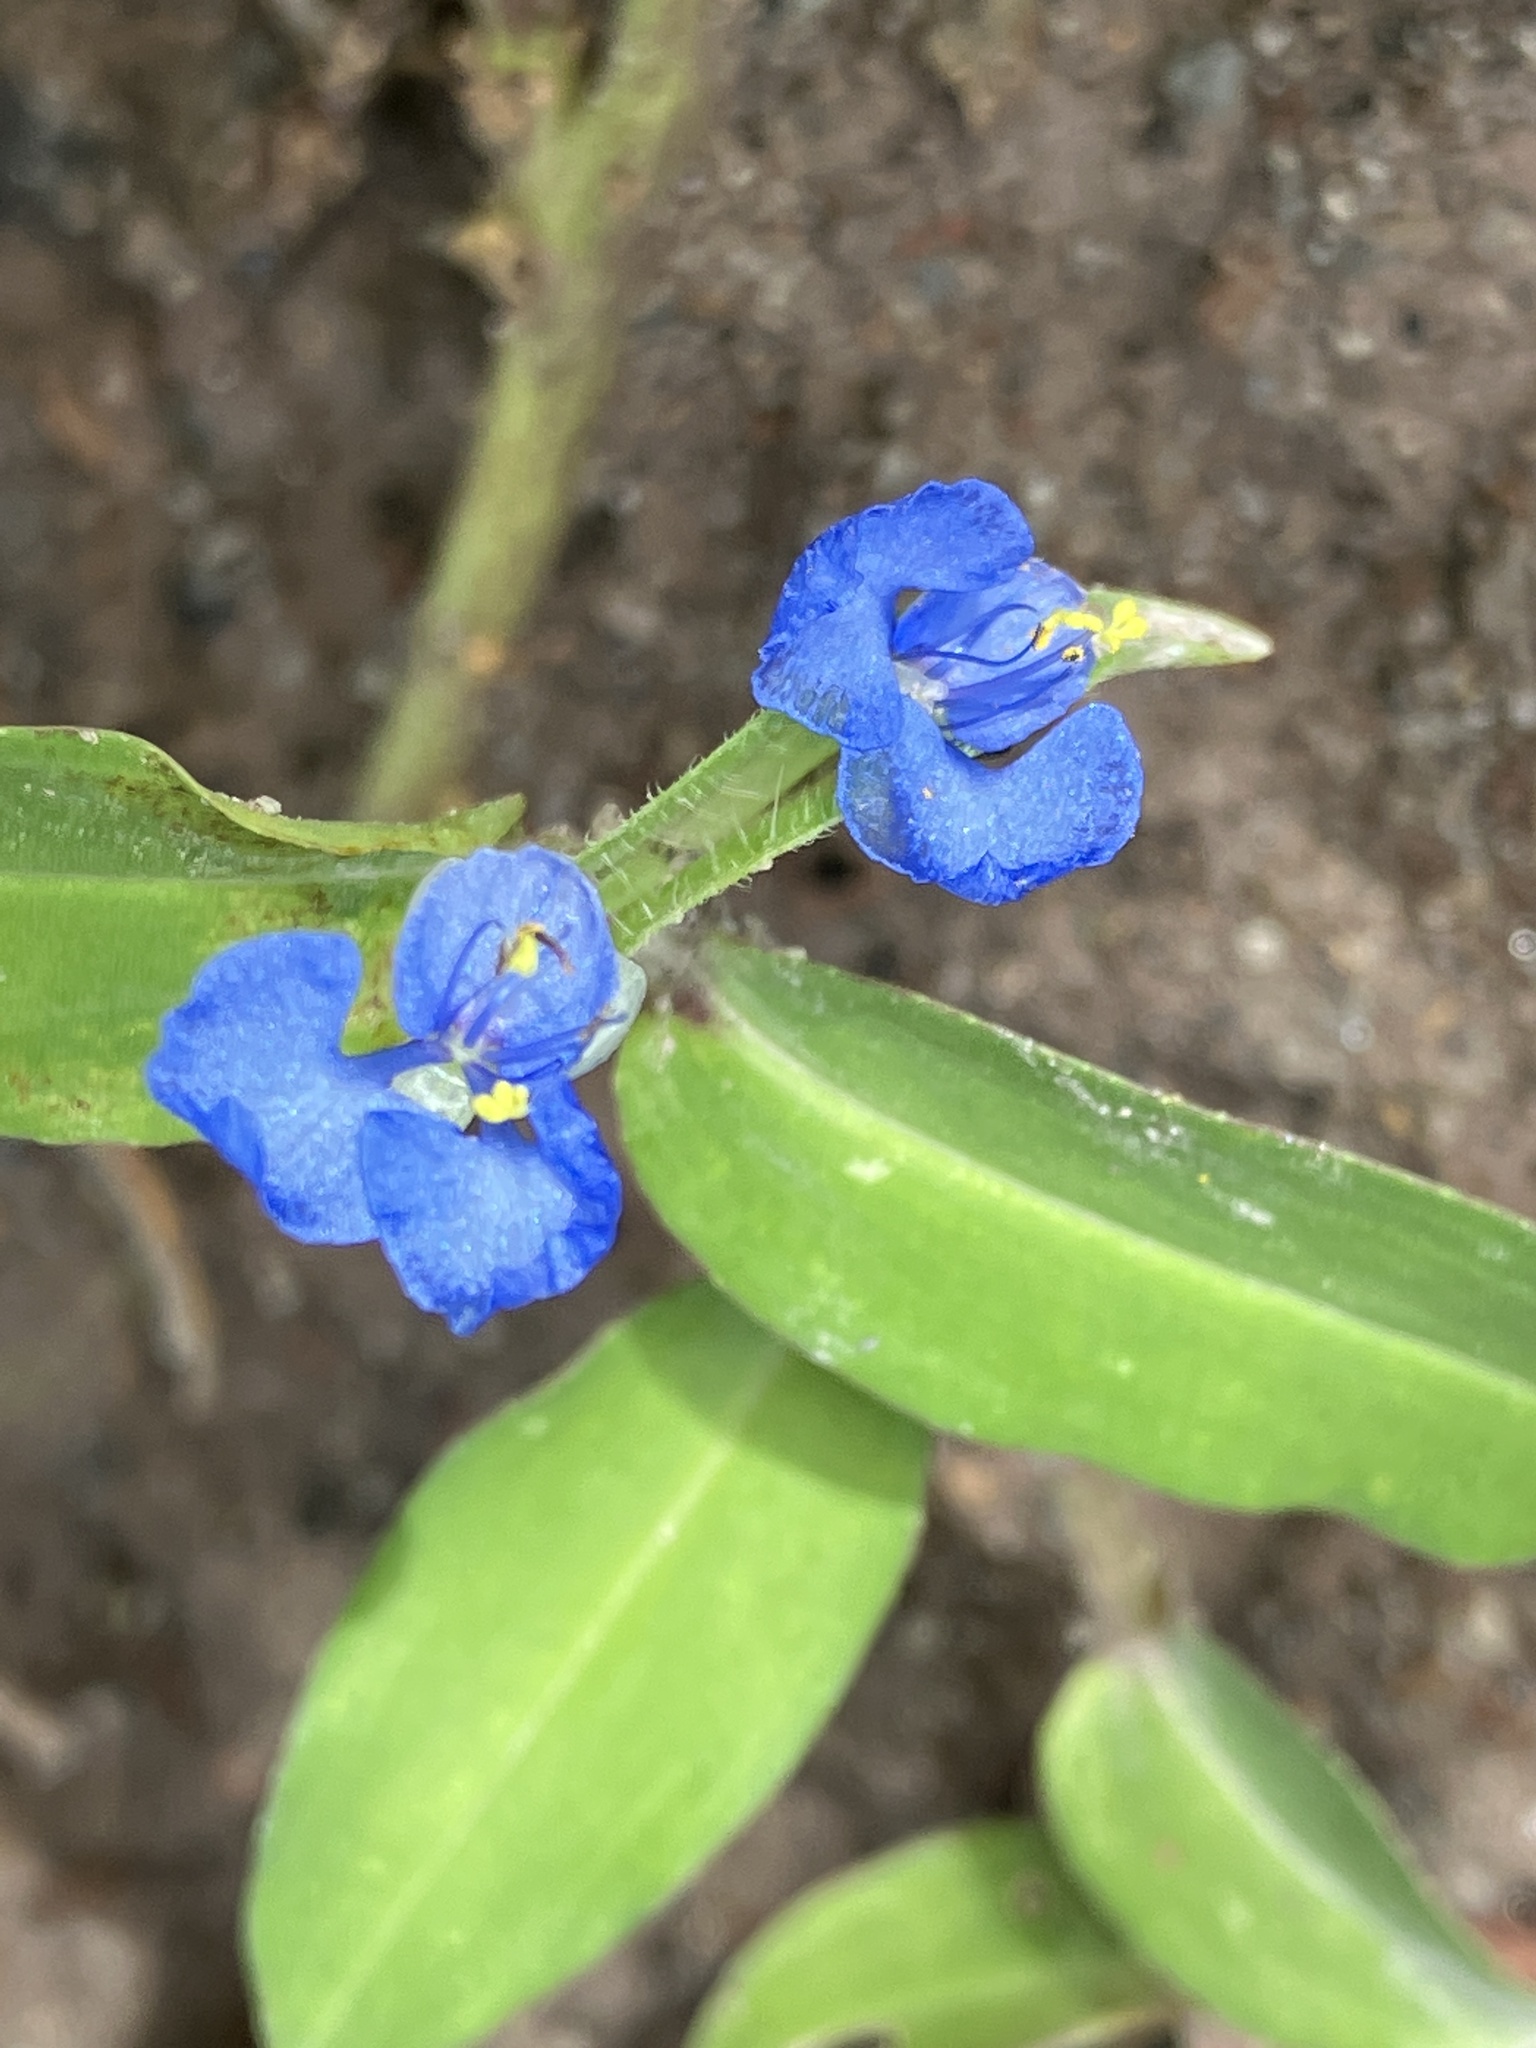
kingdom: Plantae
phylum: Tracheophyta
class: Liliopsida
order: Commelinales
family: Commelinaceae
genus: Commelina
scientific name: Commelina diffusa
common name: Climbing dayflower
